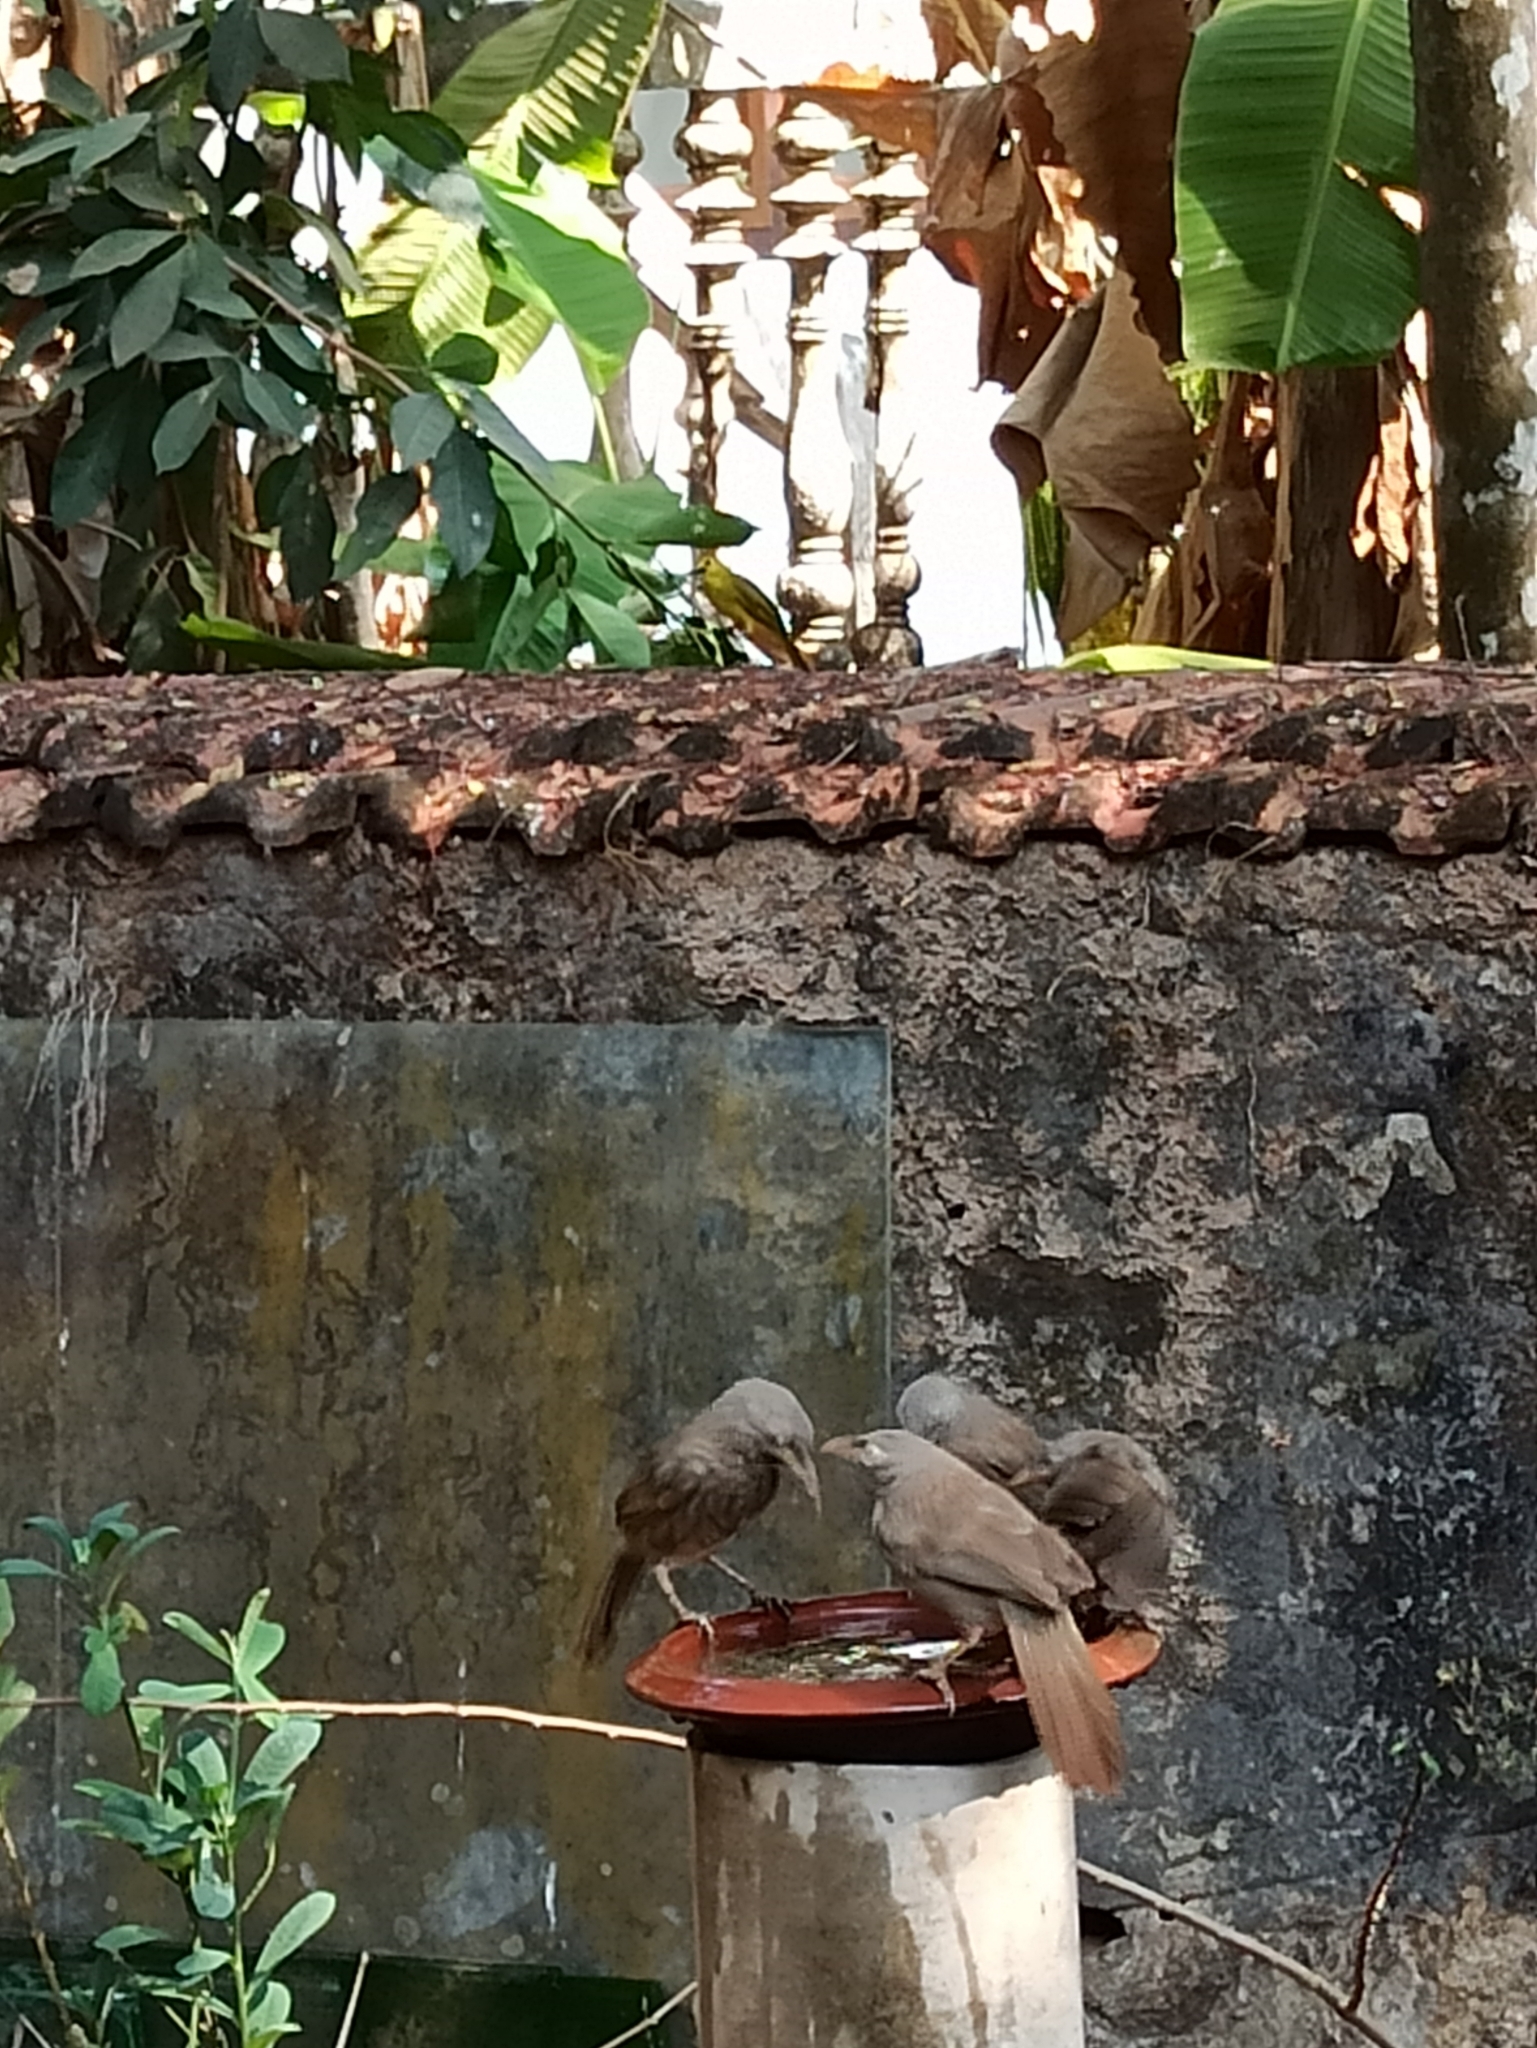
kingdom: Animalia
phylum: Chordata
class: Aves
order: Passeriformes
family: Leiothrichidae
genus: Turdoides
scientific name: Turdoides striata
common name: Jungle babbler
